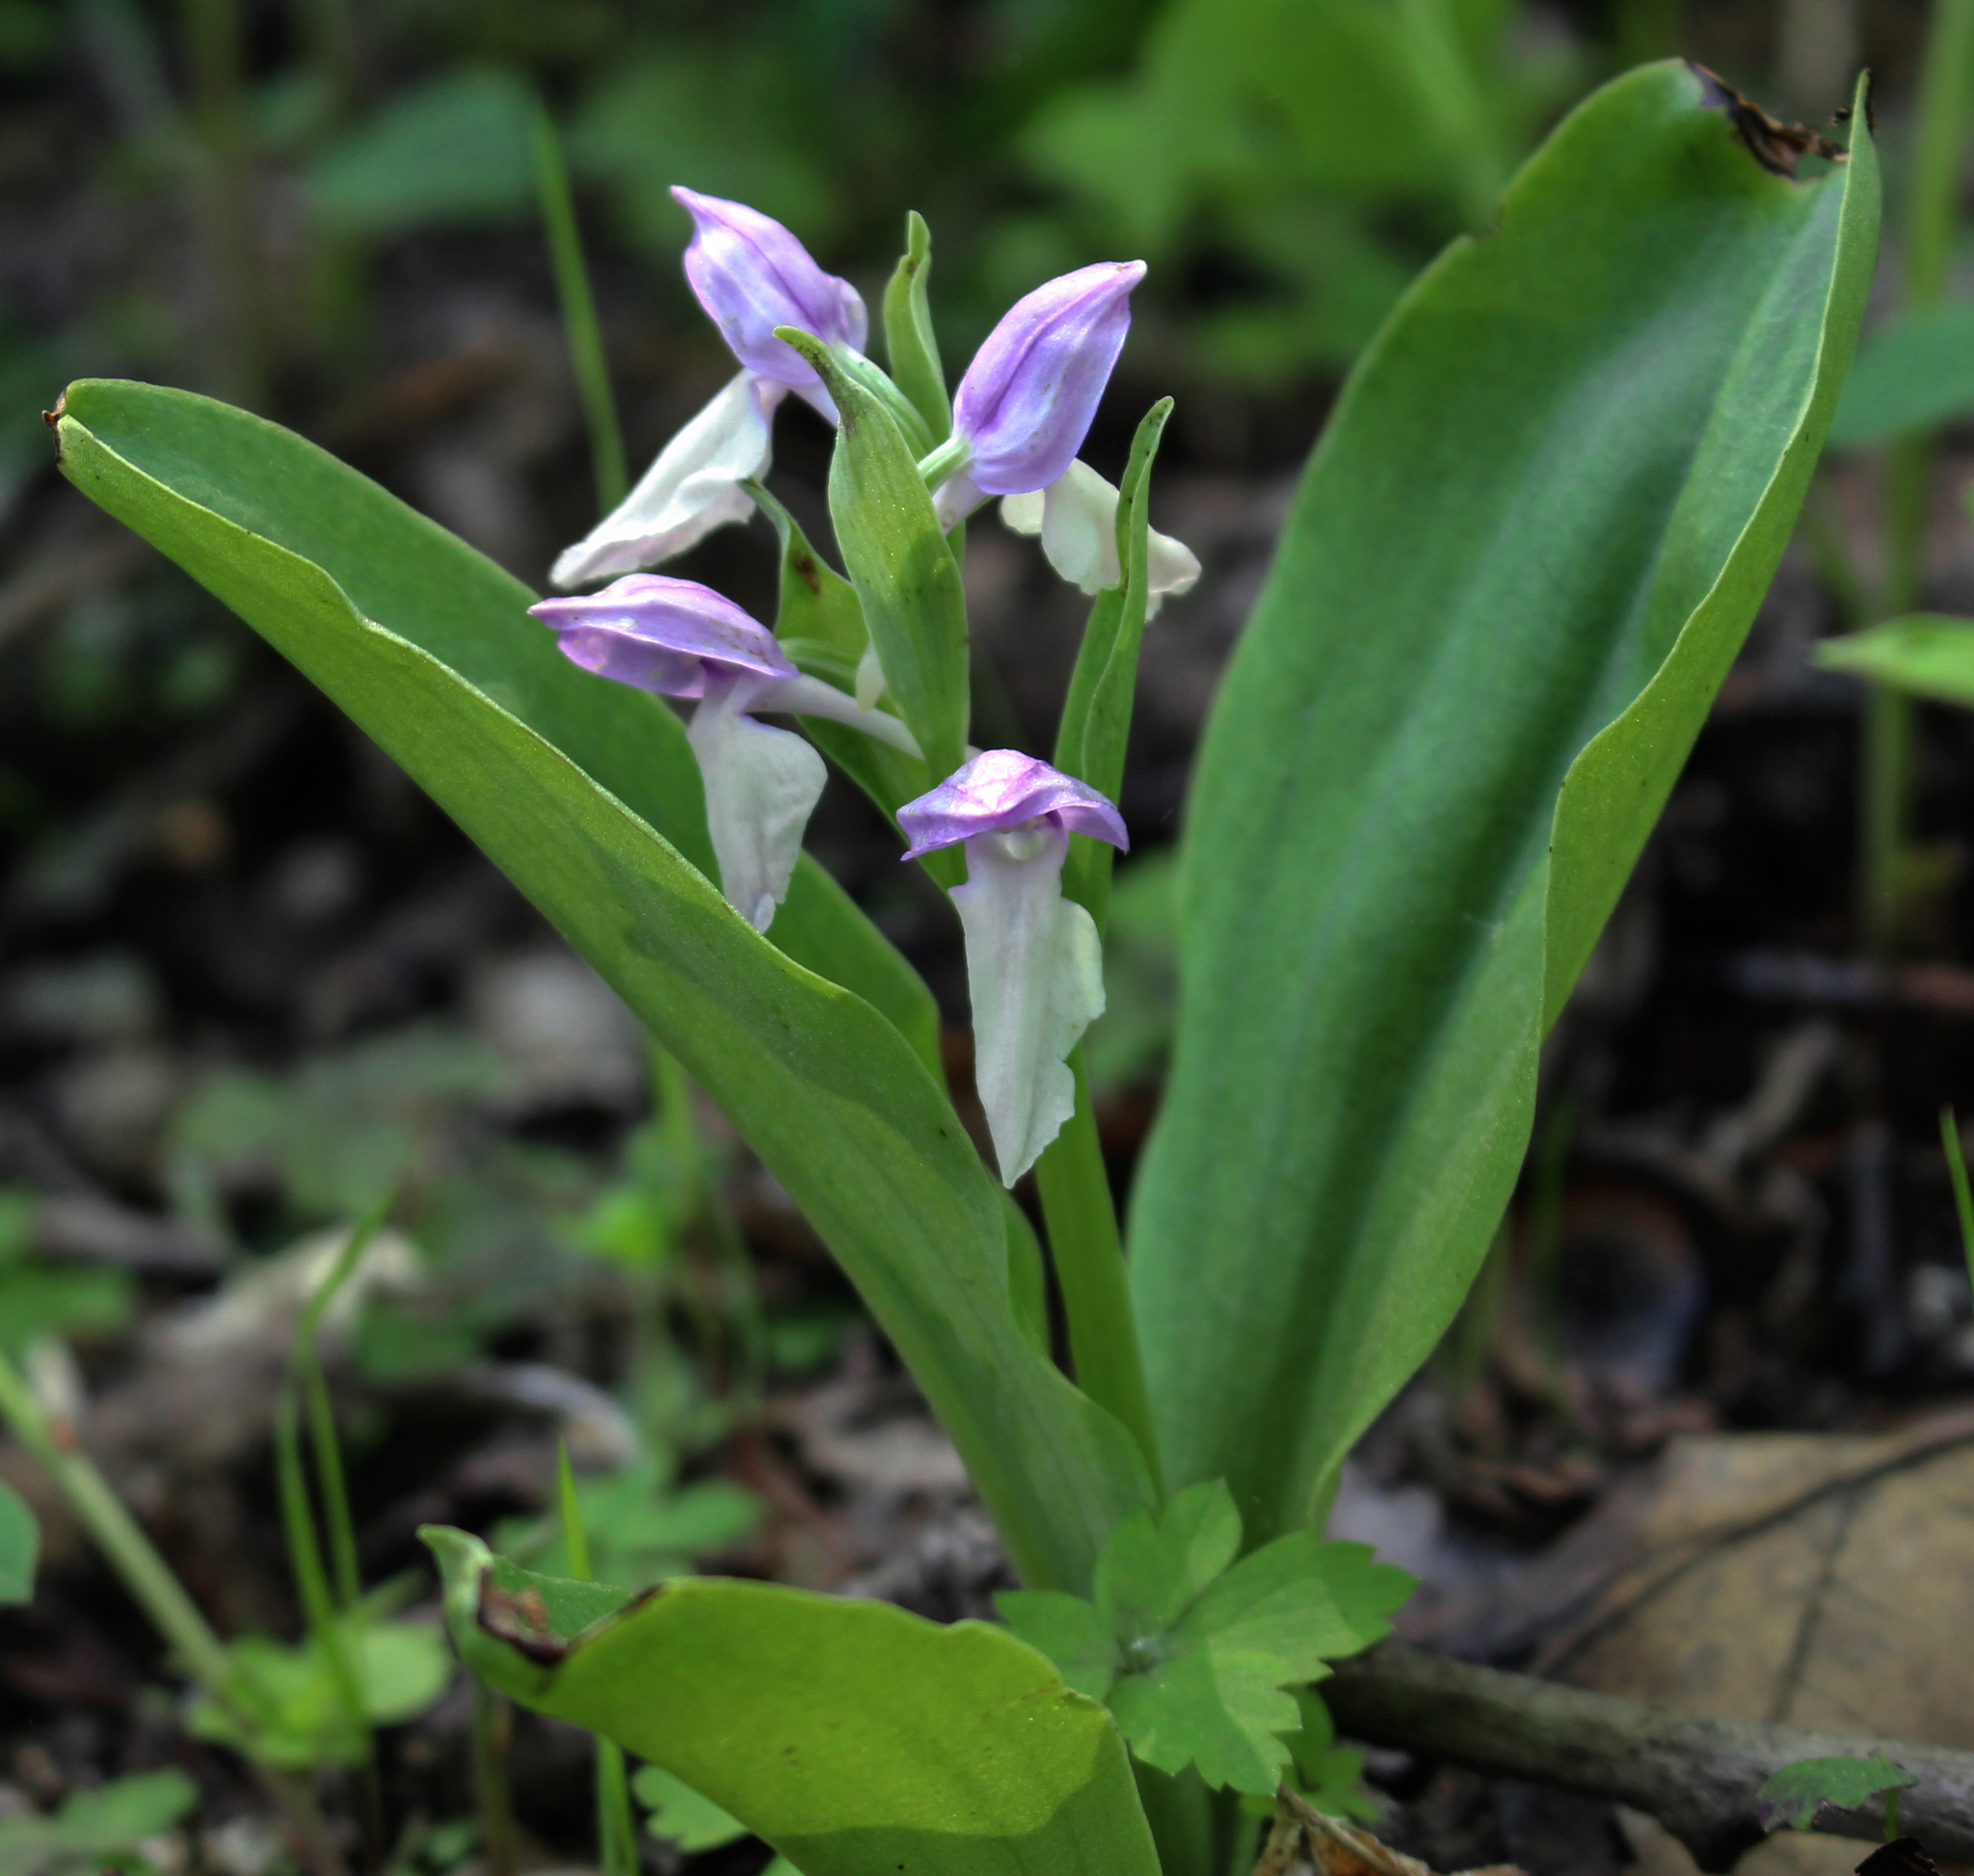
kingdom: Plantae
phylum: Tracheophyta
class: Liliopsida
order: Asparagales
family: Orchidaceae
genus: Galearis
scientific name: Galearis spectabilis
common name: Purple-hooded orchis
